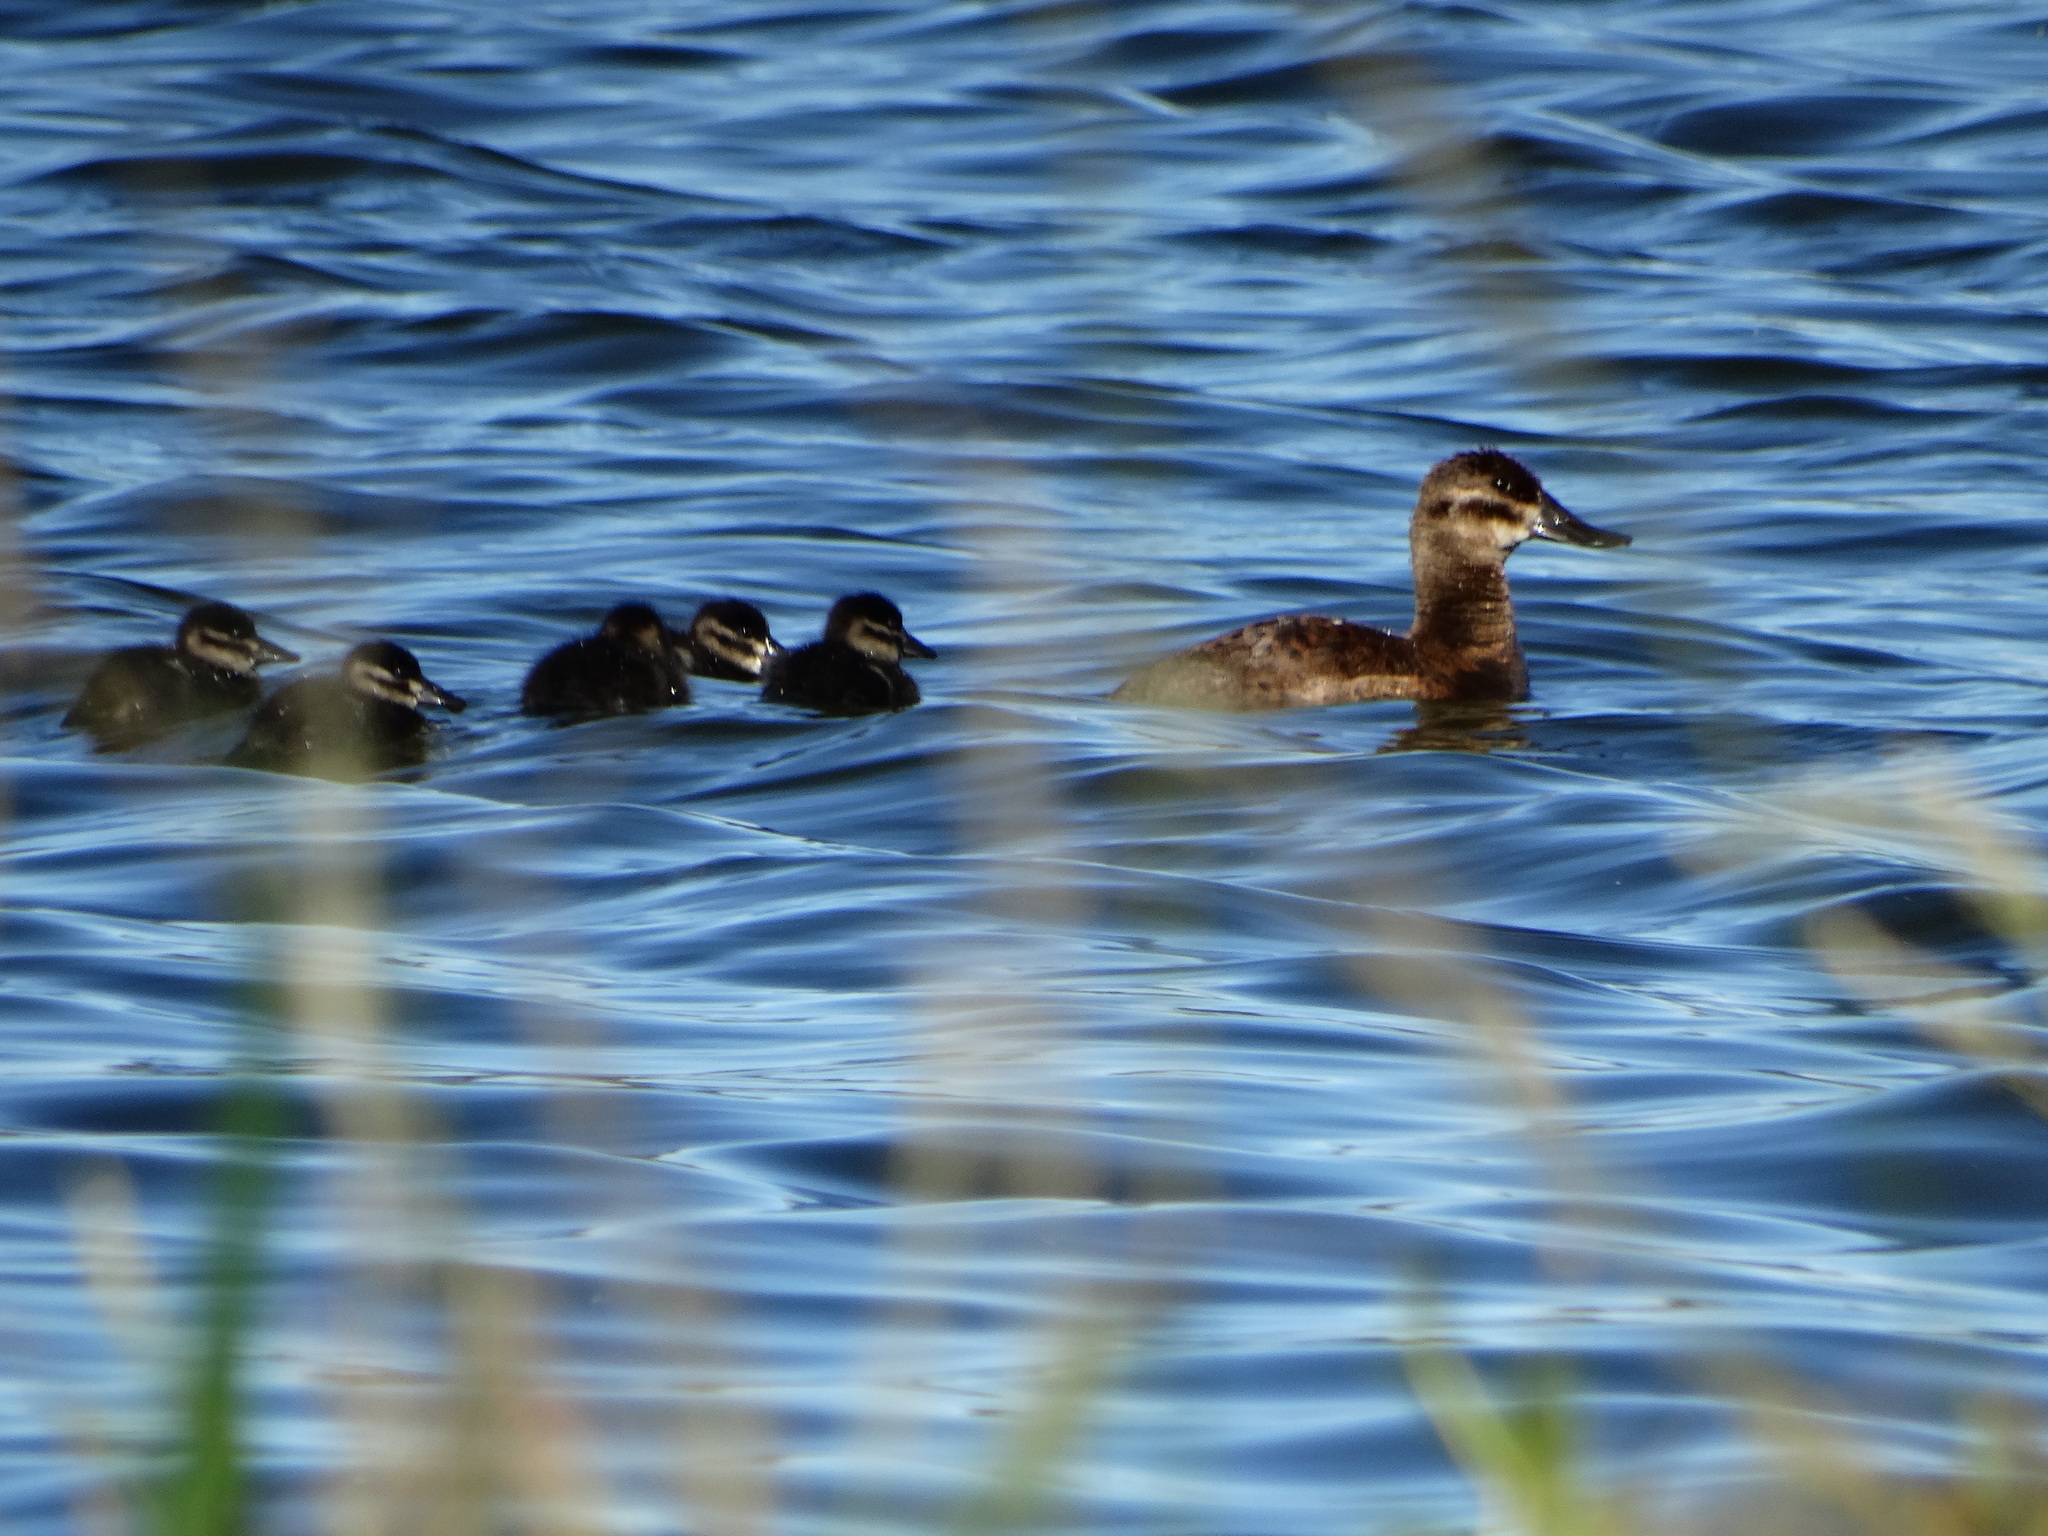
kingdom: Animalia
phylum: Chordata
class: Aves
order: Anseriformes
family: Anatidae
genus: Oxyura
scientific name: Oxyura jamaicensis
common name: Ruddy duck
